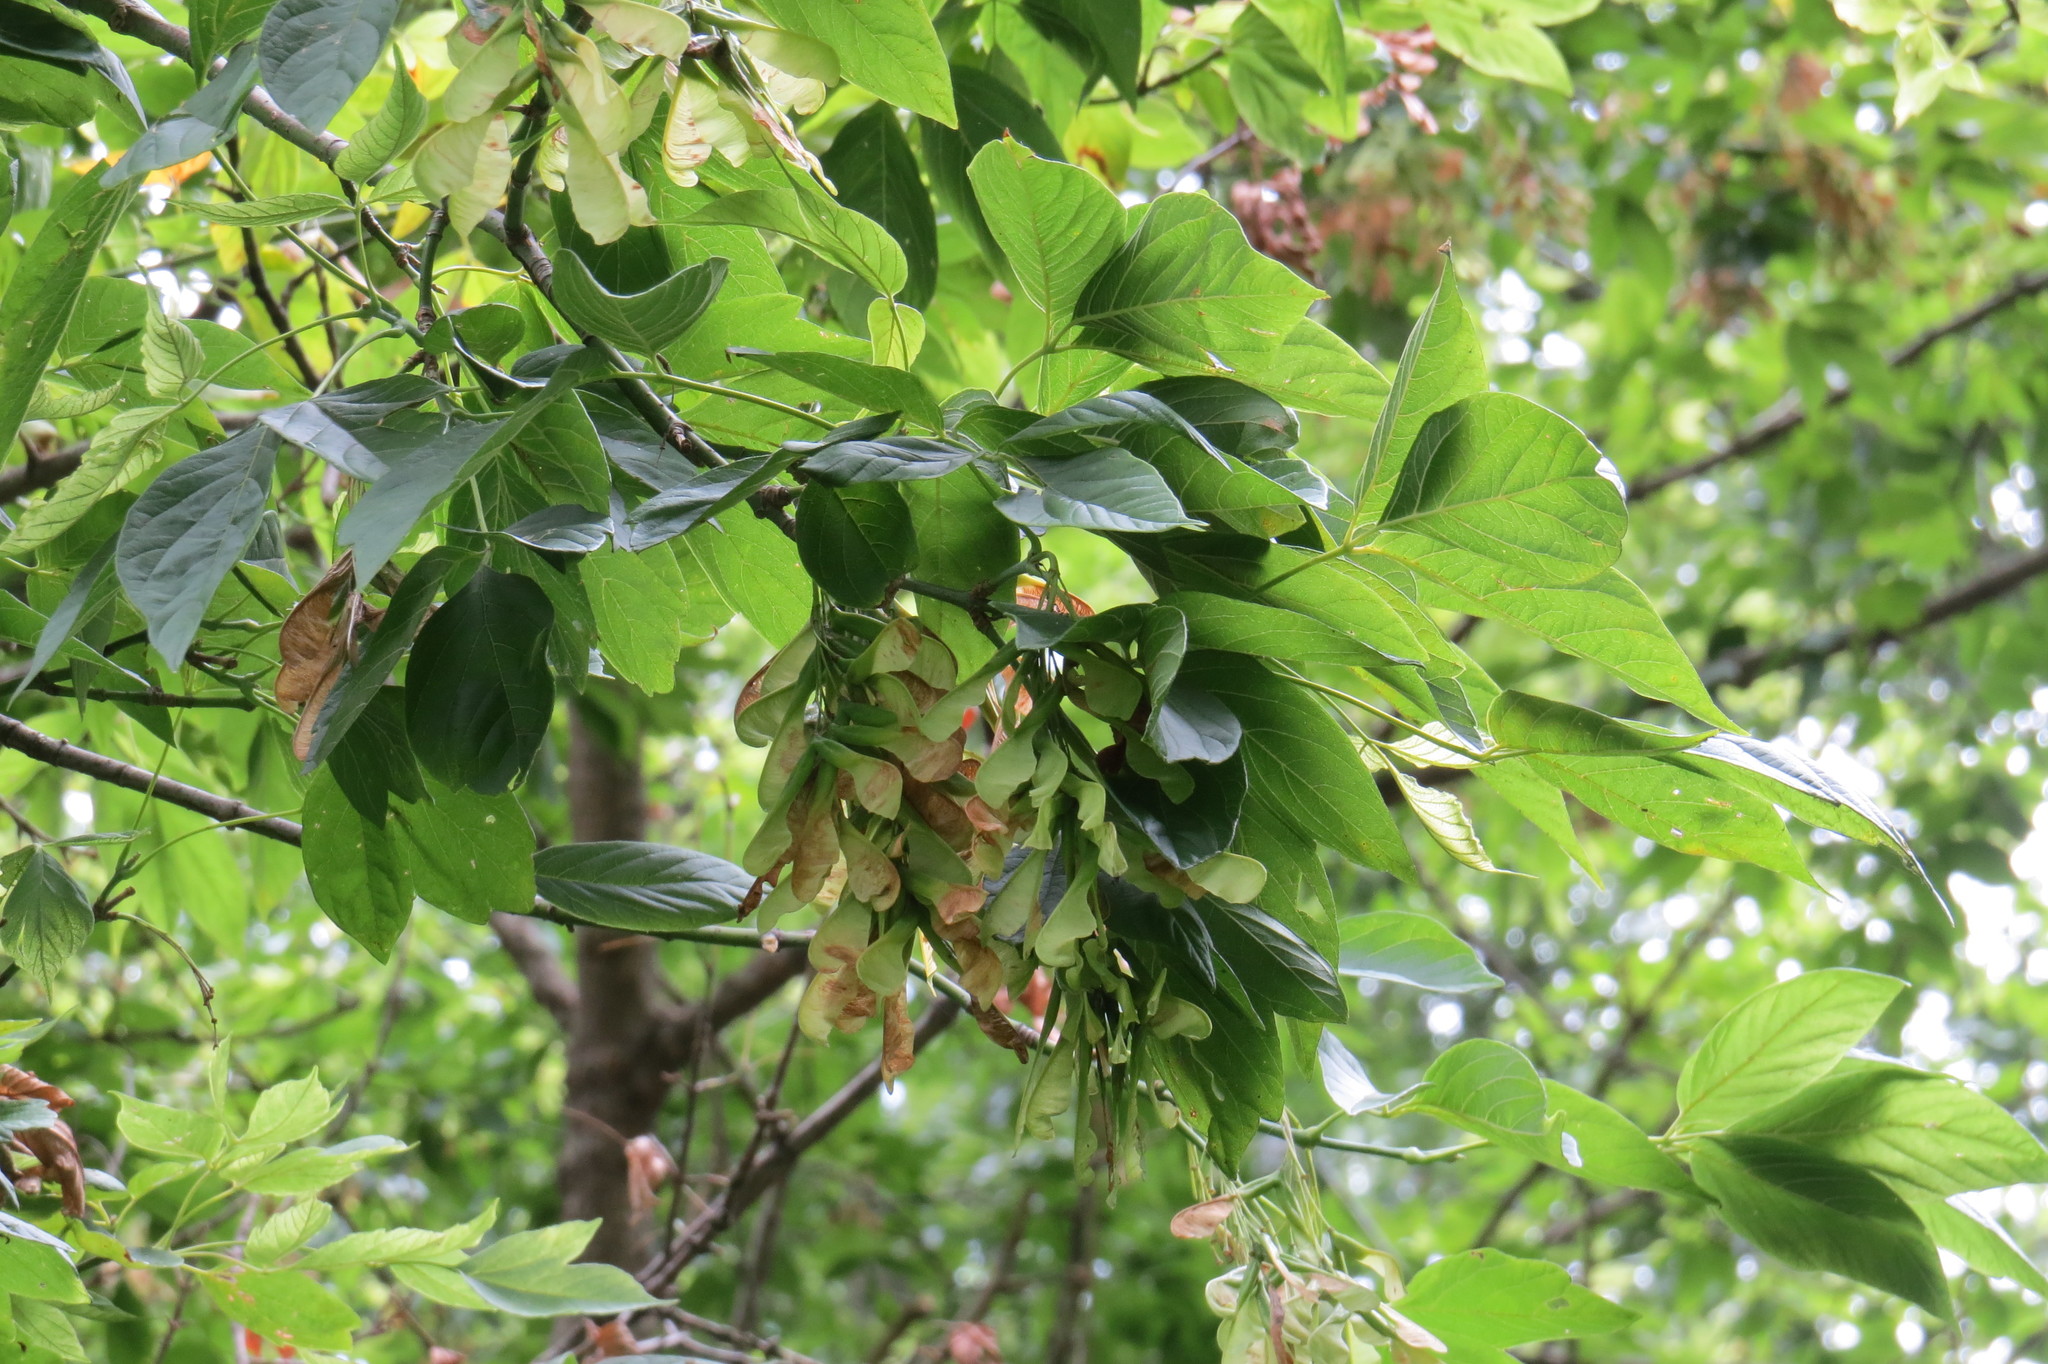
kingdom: Plantae
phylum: Tracheophyta
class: Magnoliopsida
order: Sapindales
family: Sapindaceae
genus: Acer
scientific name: Acer negundo
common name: Ashleaf maple
